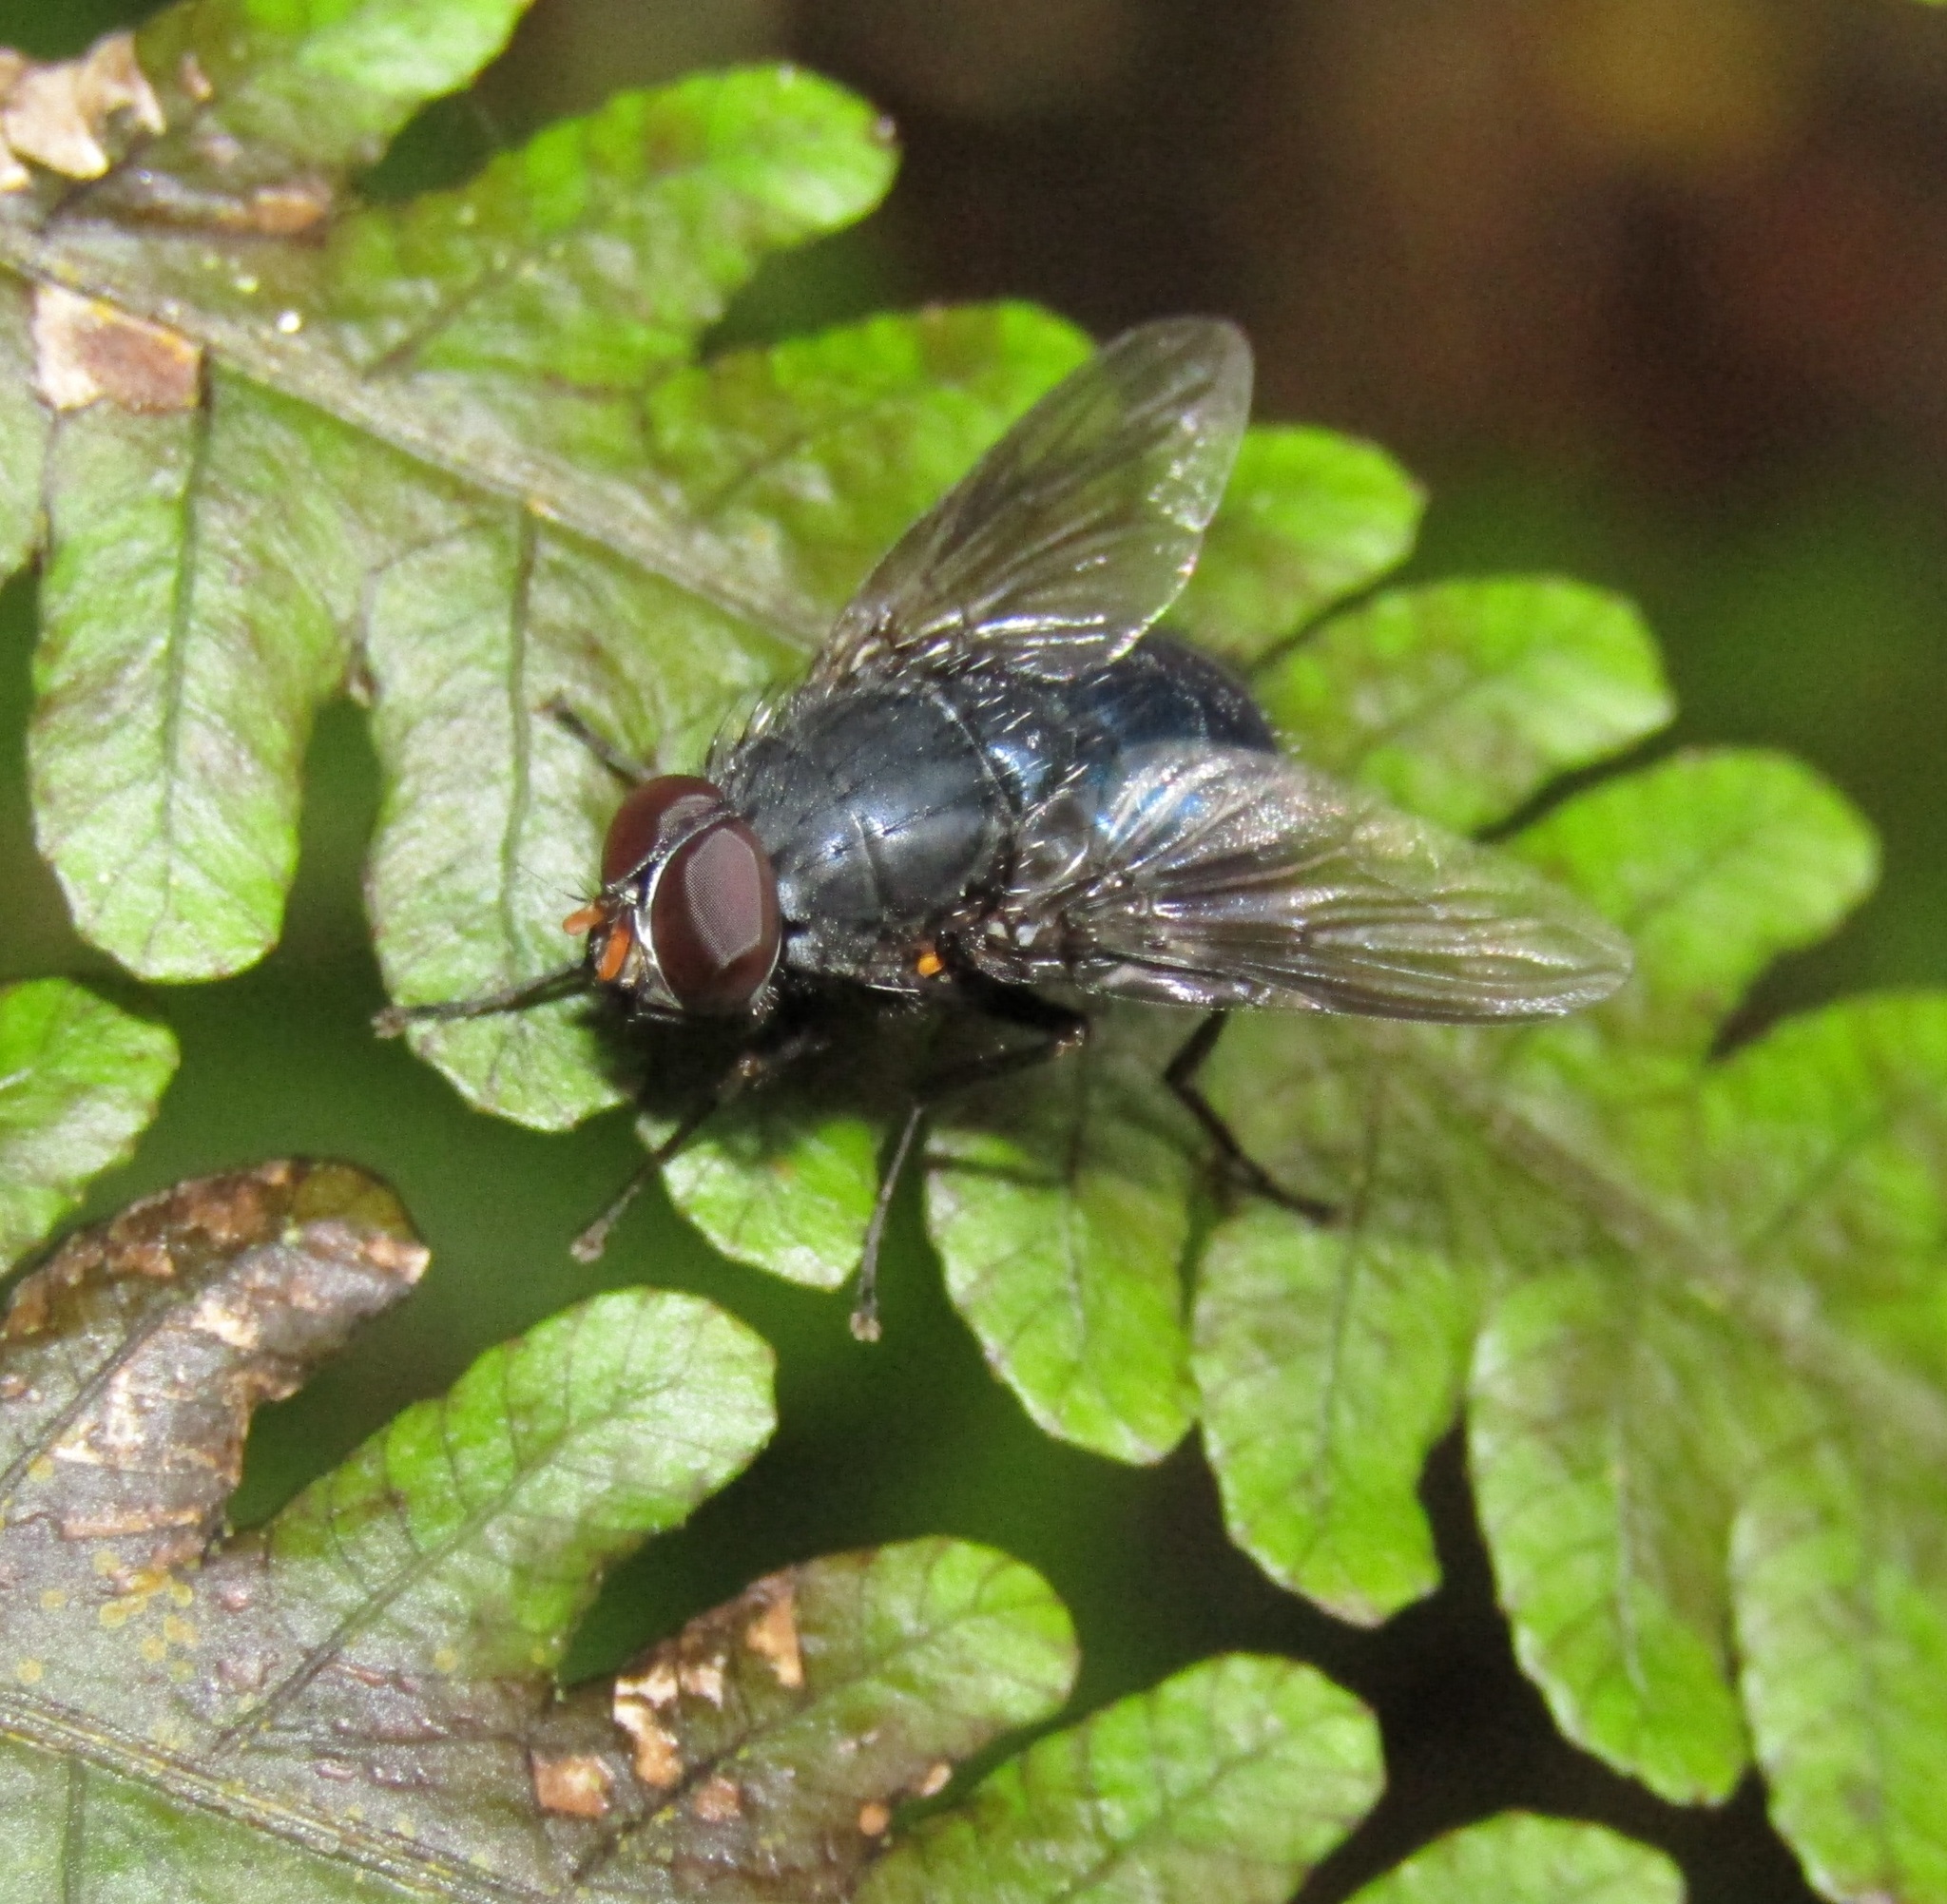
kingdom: Animalia
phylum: Arthropoda
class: Insecta
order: Diptera
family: Muscidae
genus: Calliphoroides
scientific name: Calliphoroides antennatis
